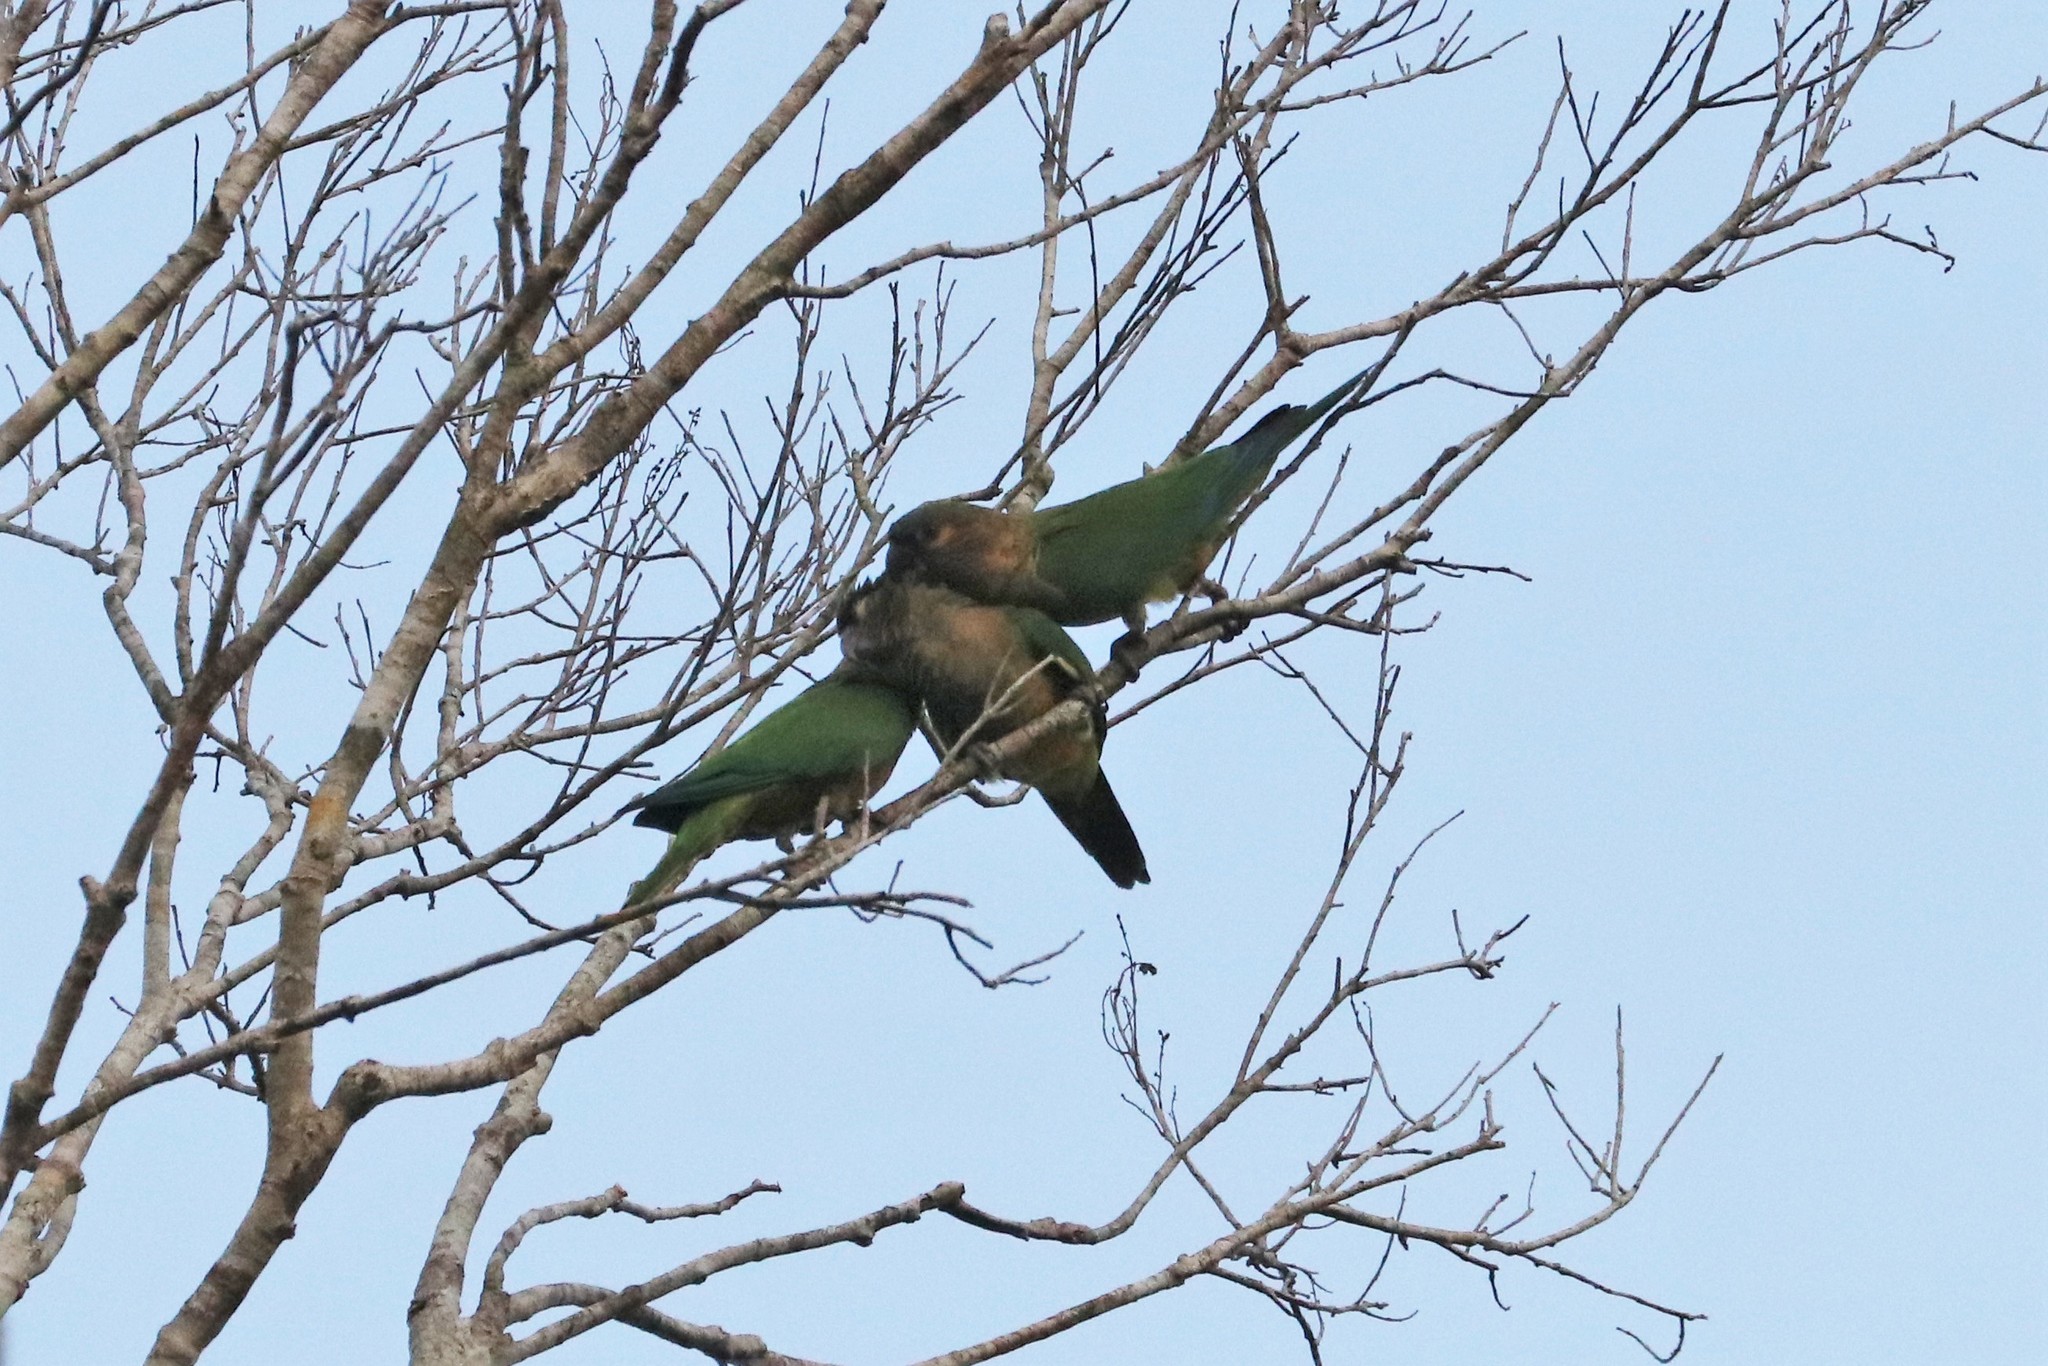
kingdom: Animalia
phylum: Chordata
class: Aves
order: Psittaciformes
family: Psittacidae
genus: Aratinga
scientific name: Aratinga pertinax
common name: Brown-throated parakeet
